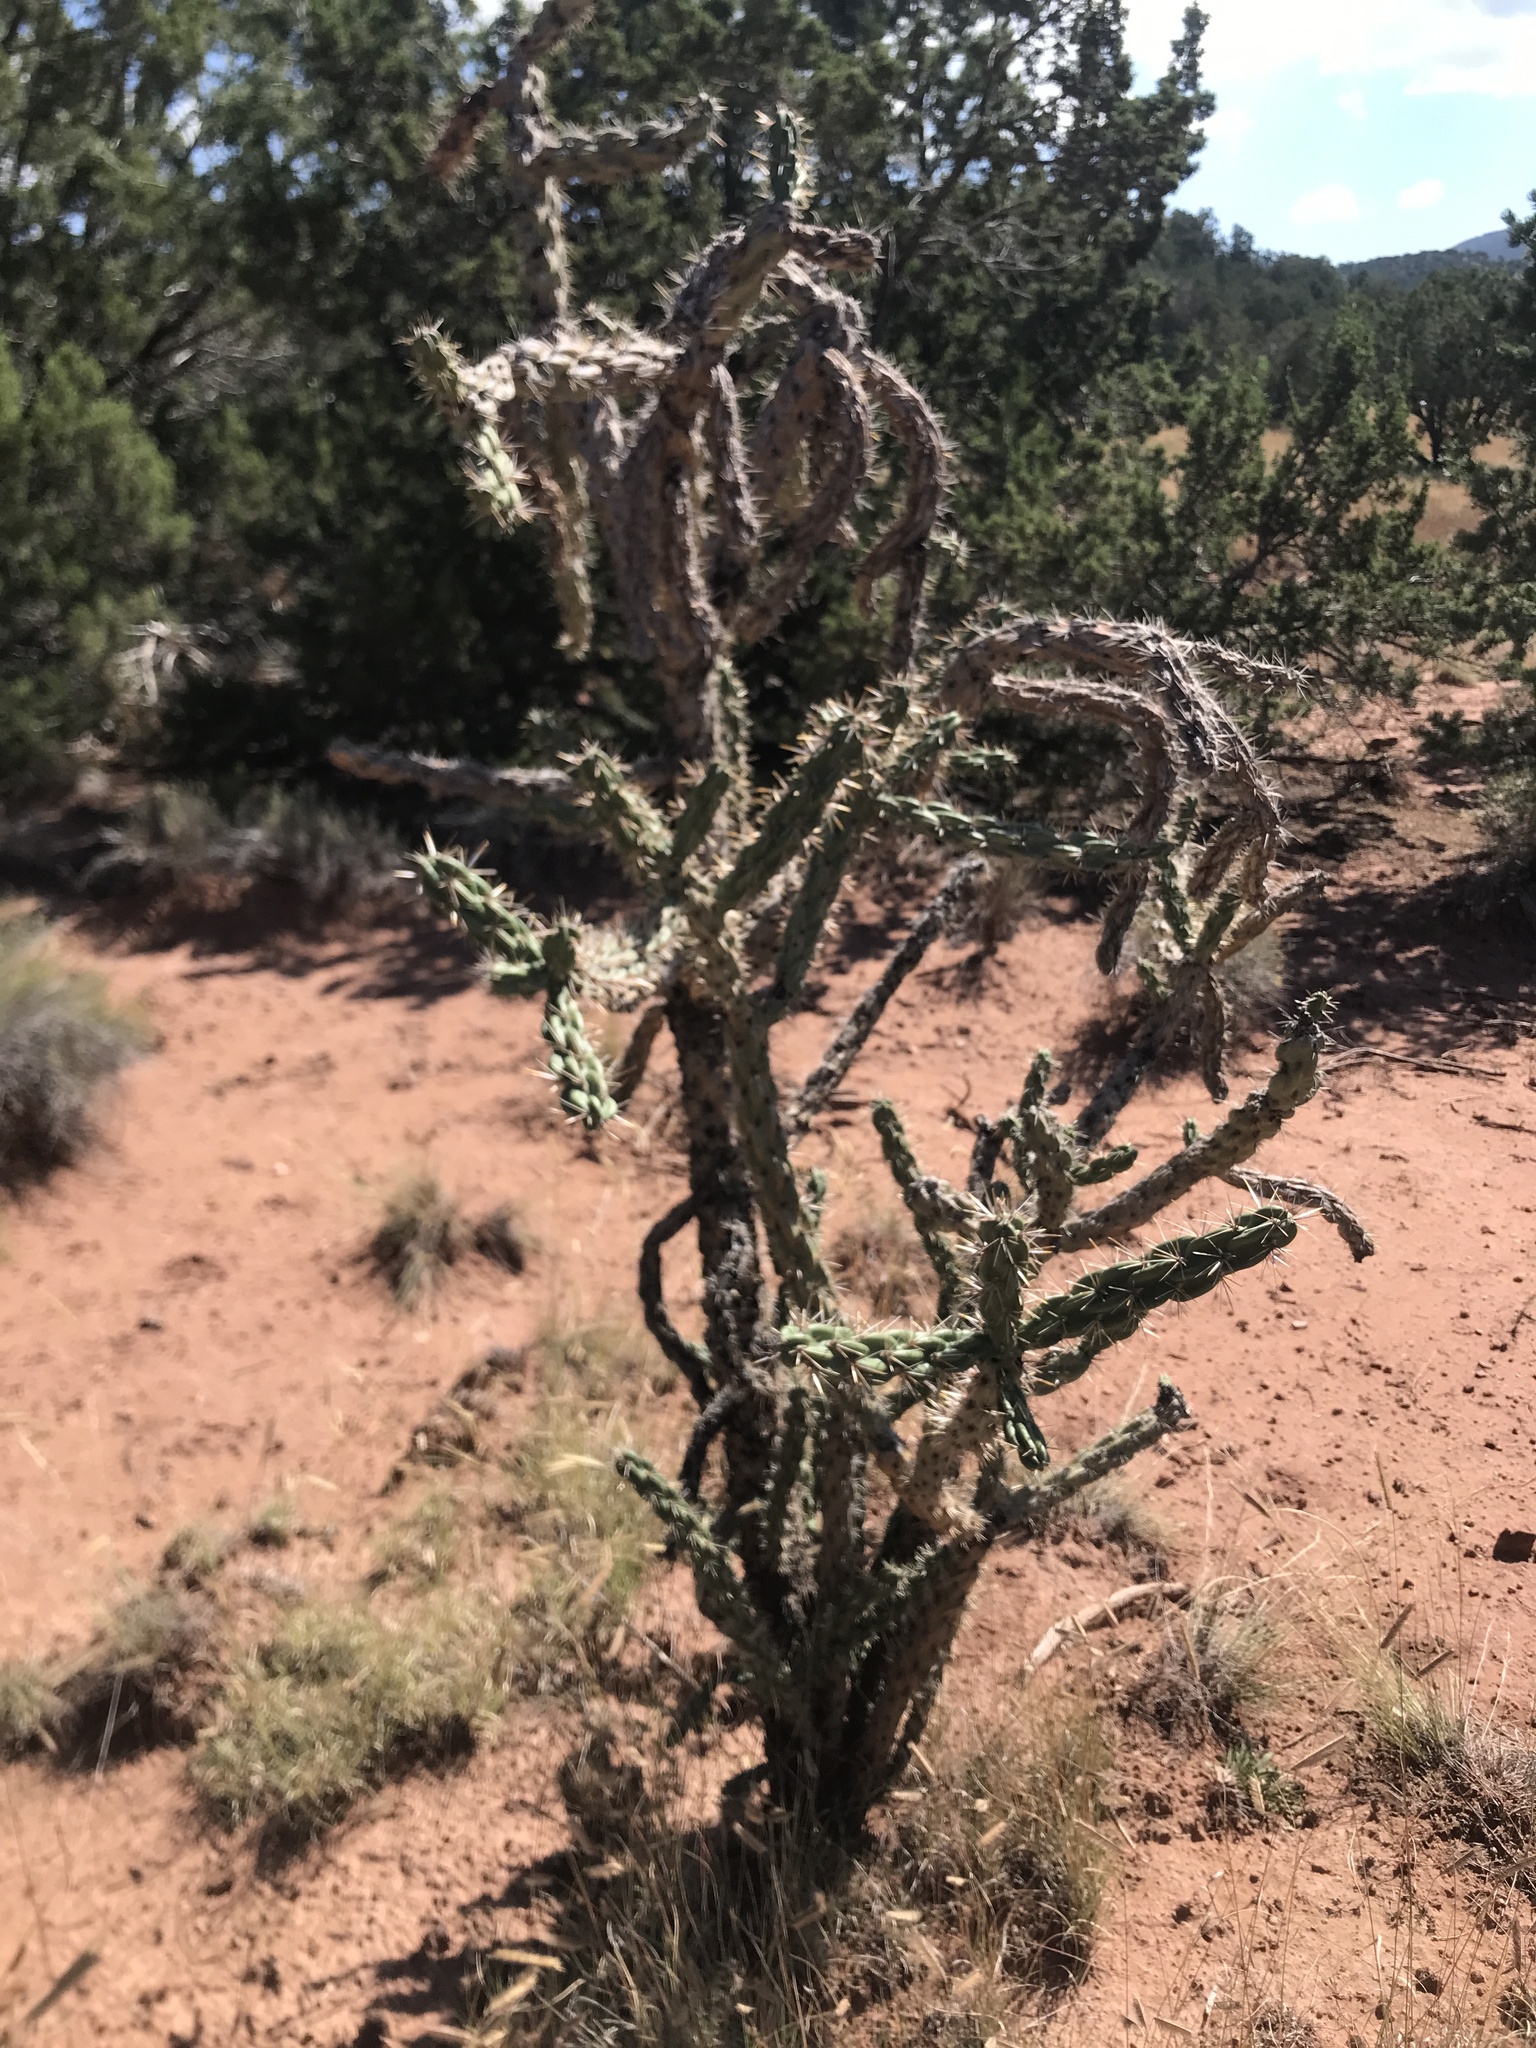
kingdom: Plantae
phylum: Tracheophyta
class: Magnoliopsida
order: Caryophyllales
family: Cactaceae
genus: Cylindropuntia
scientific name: Cylindropuntia imbricata
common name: Candelabrum cactus
